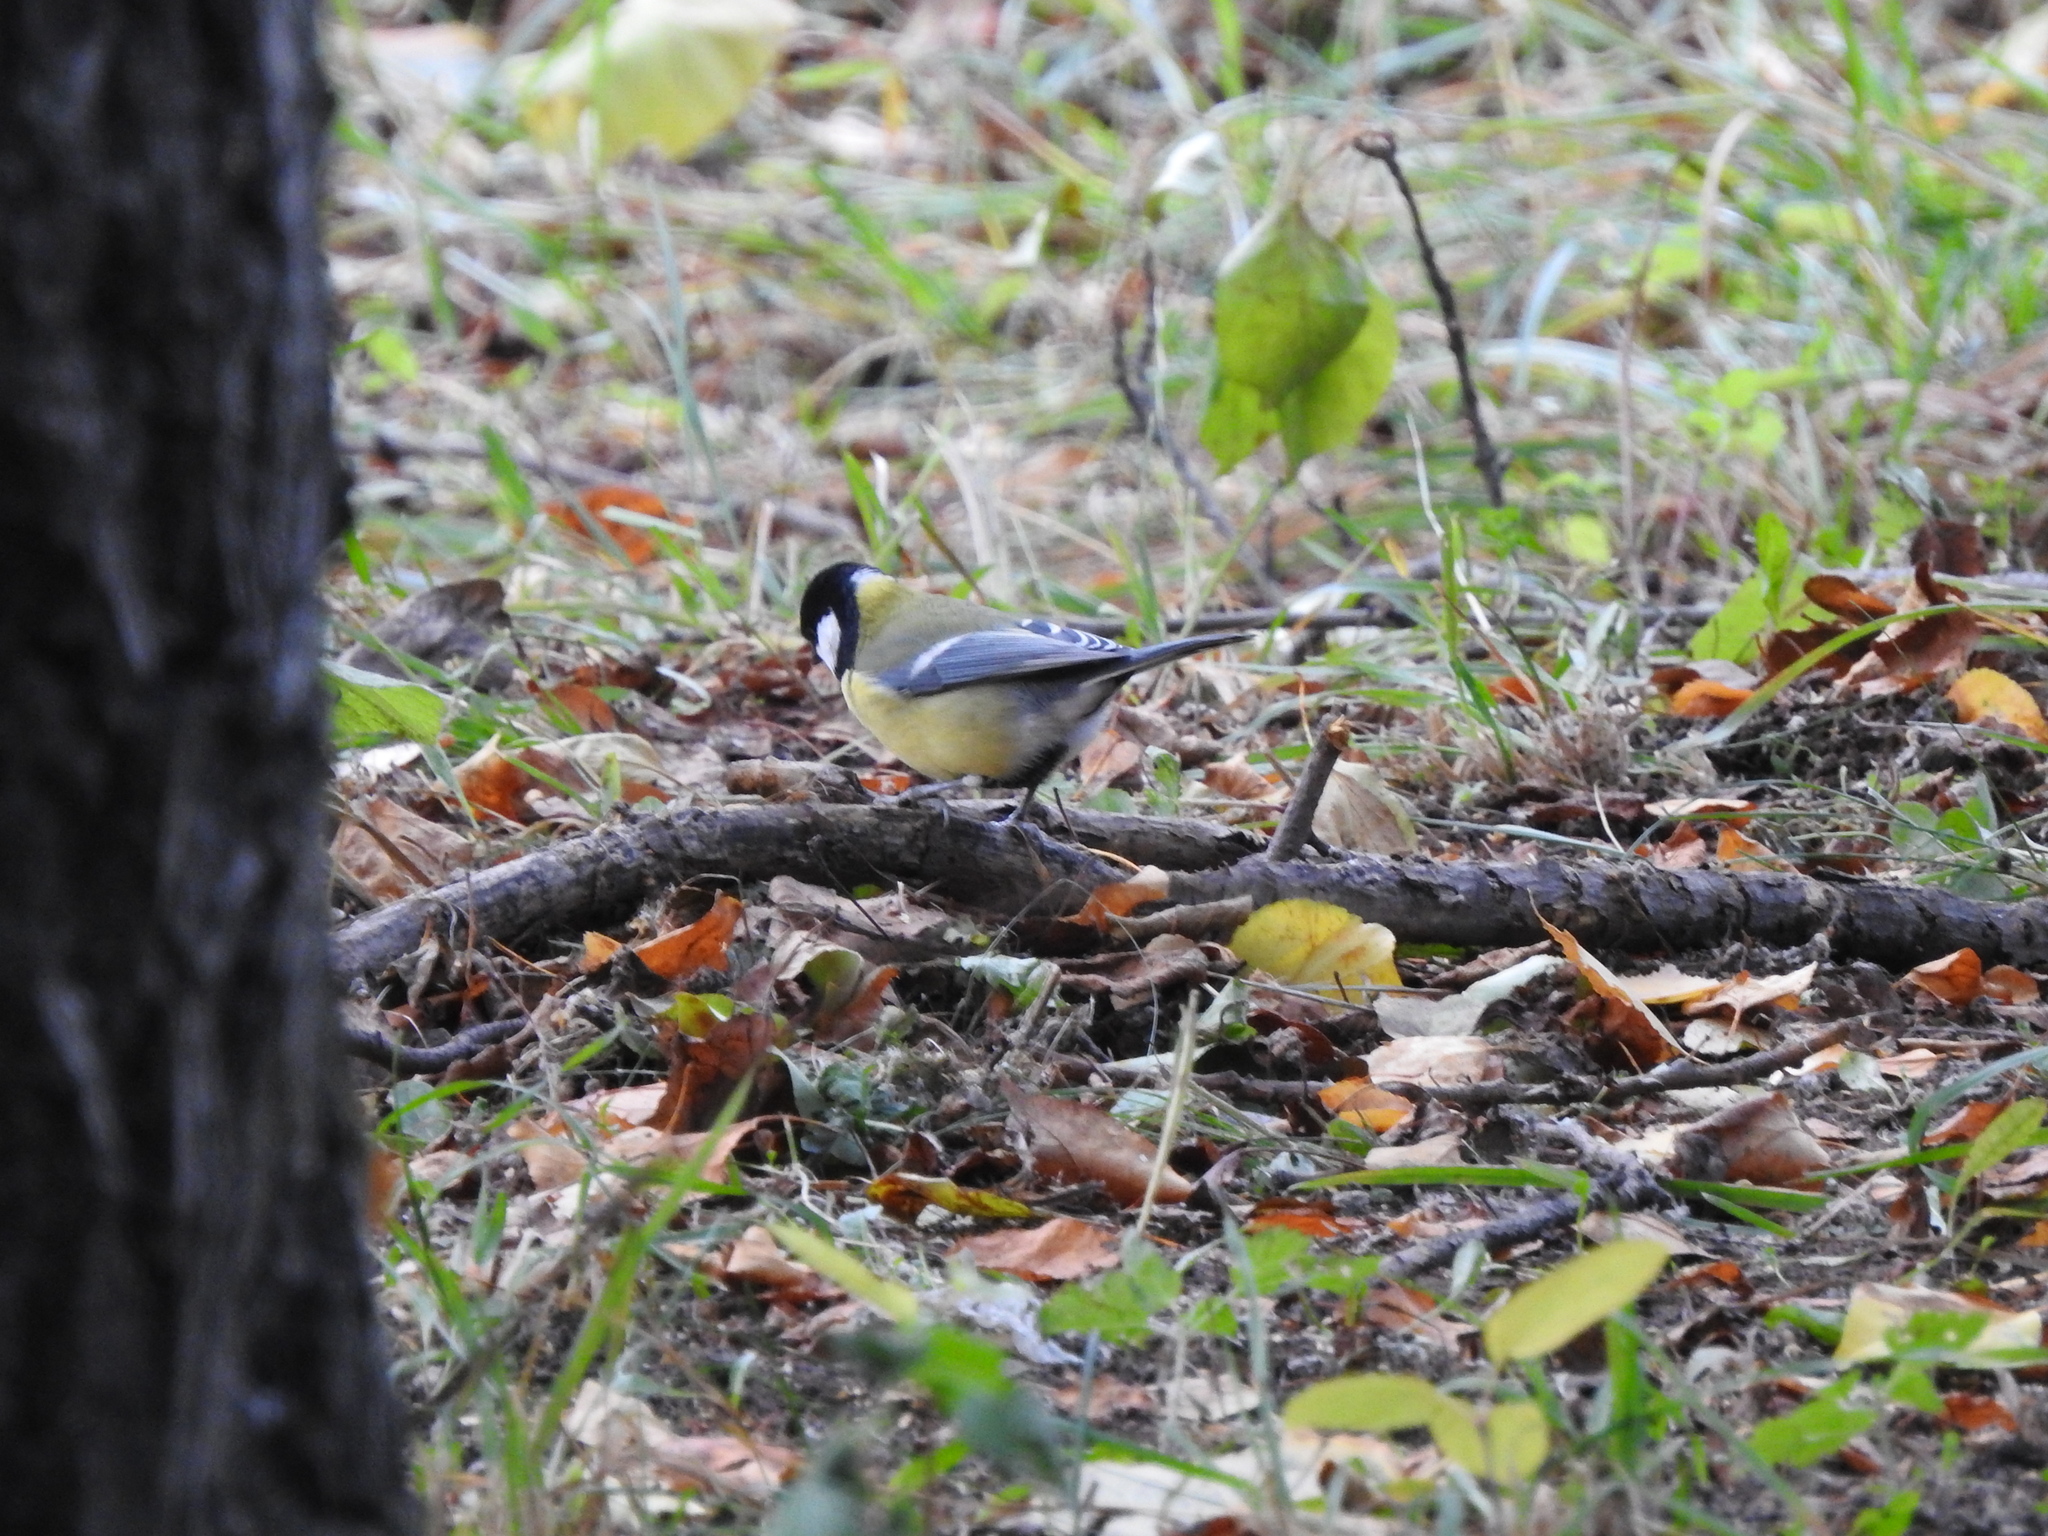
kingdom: Animalia
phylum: Chordata
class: Aves
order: Passeriformes
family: Paridae
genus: Parus
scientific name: Parus major
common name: Great tit
